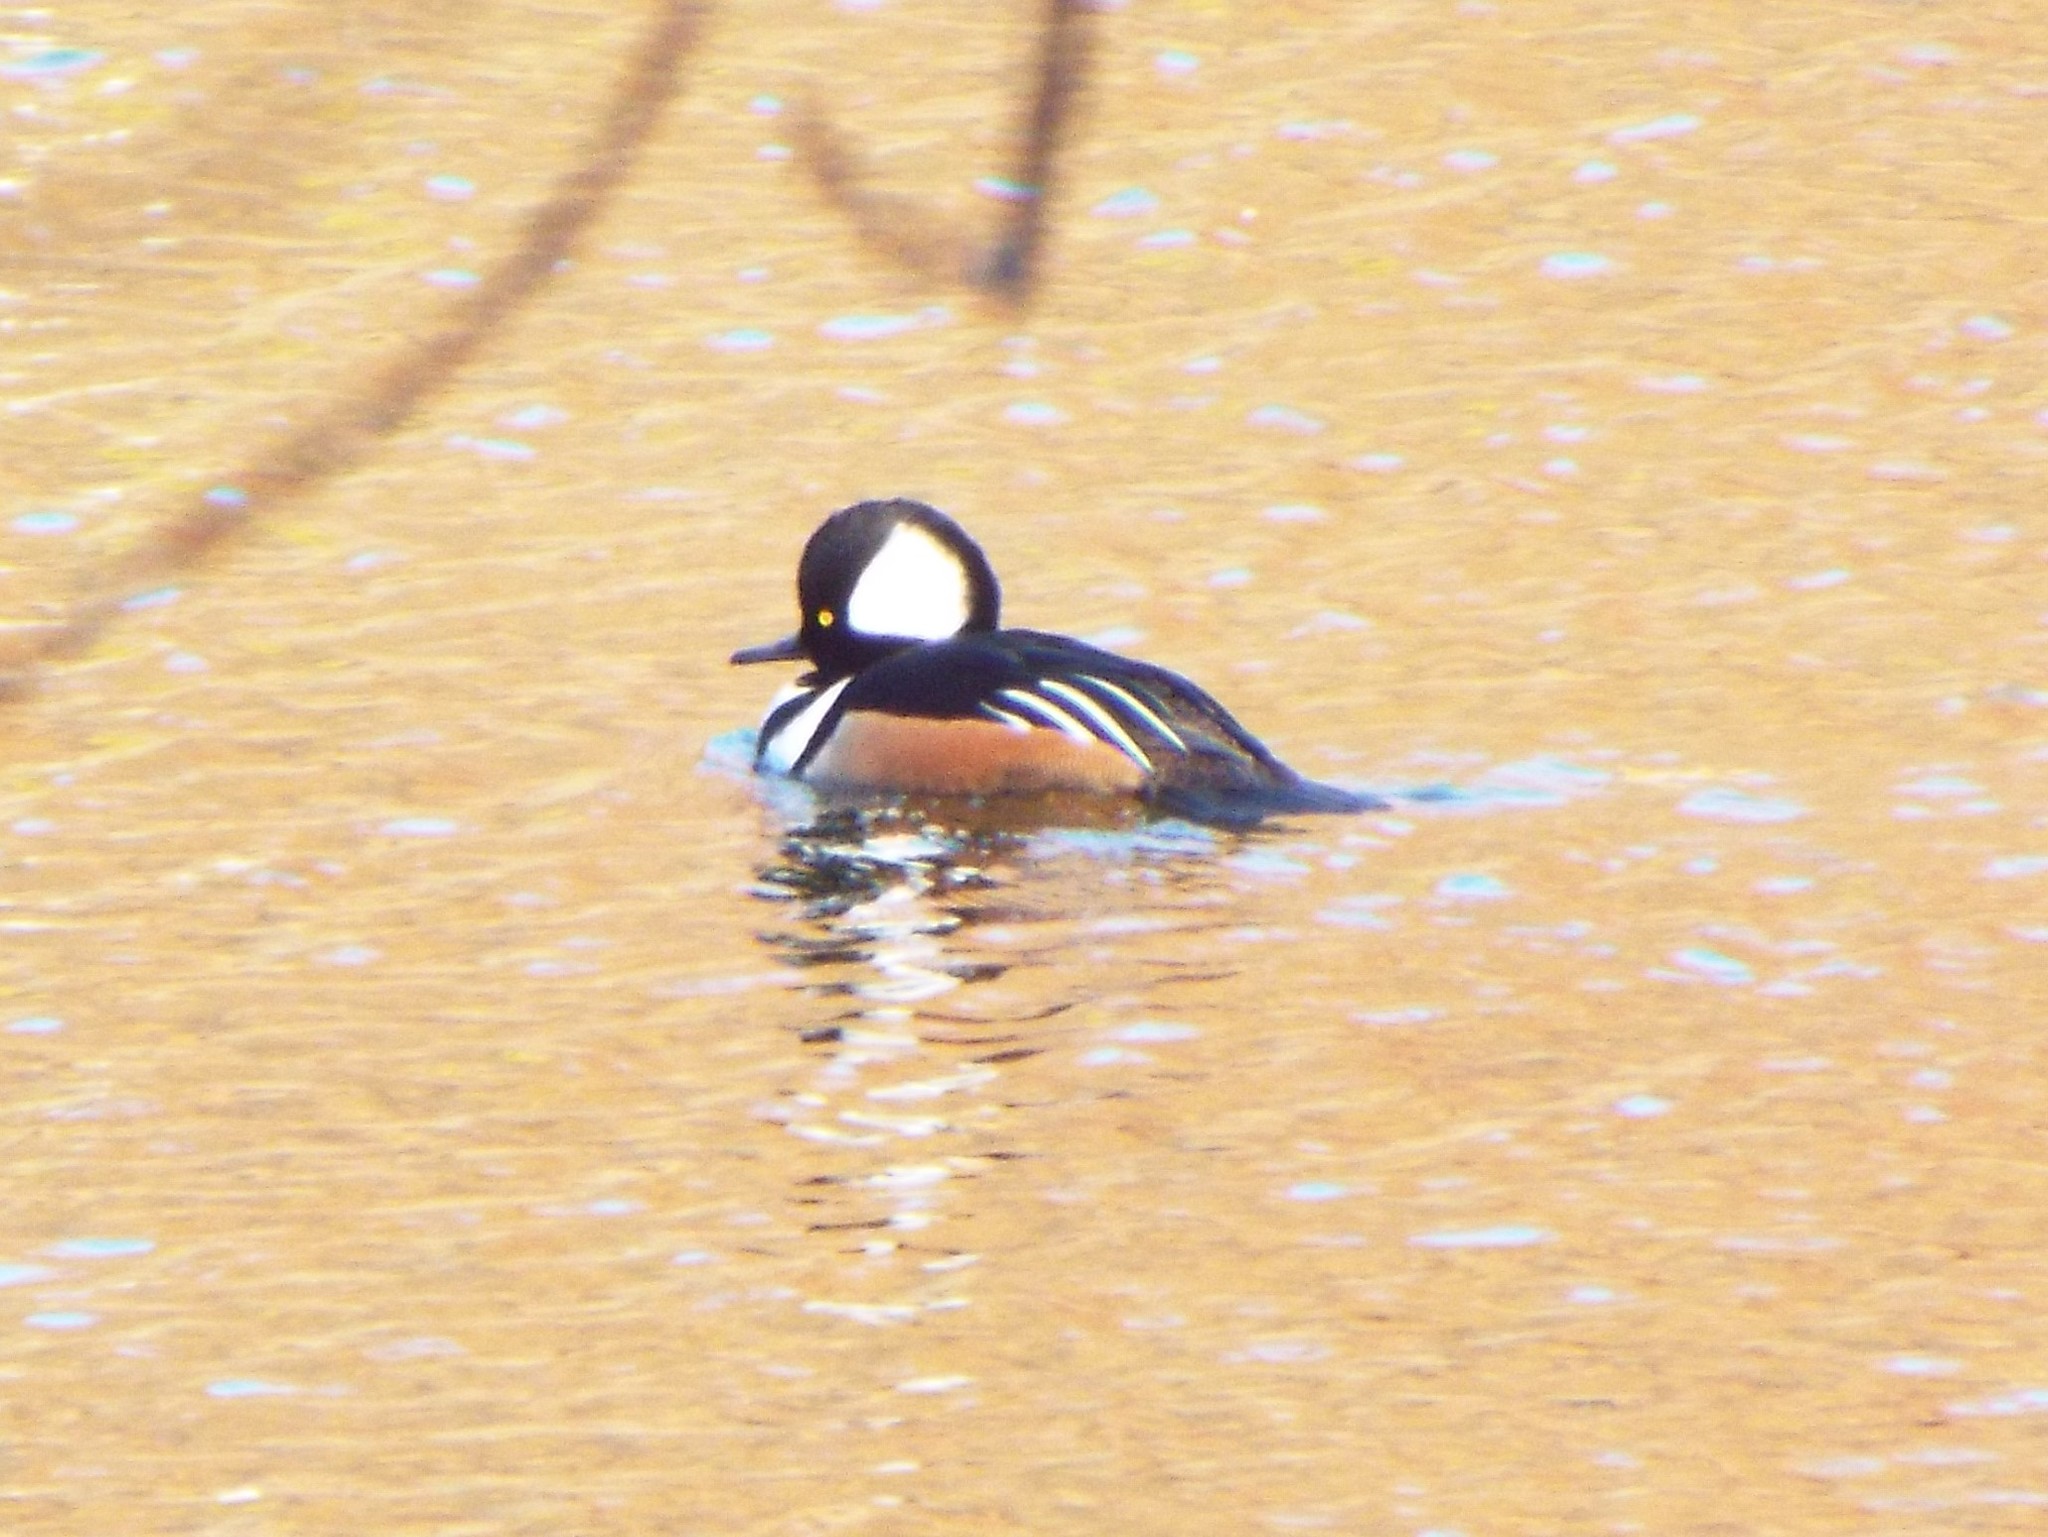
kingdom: Animalia
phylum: Chordata
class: Aves
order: Anseriformes
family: Anatidae
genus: Lophodytes
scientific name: Lophodytes cucullatus
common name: Hooded merganser
